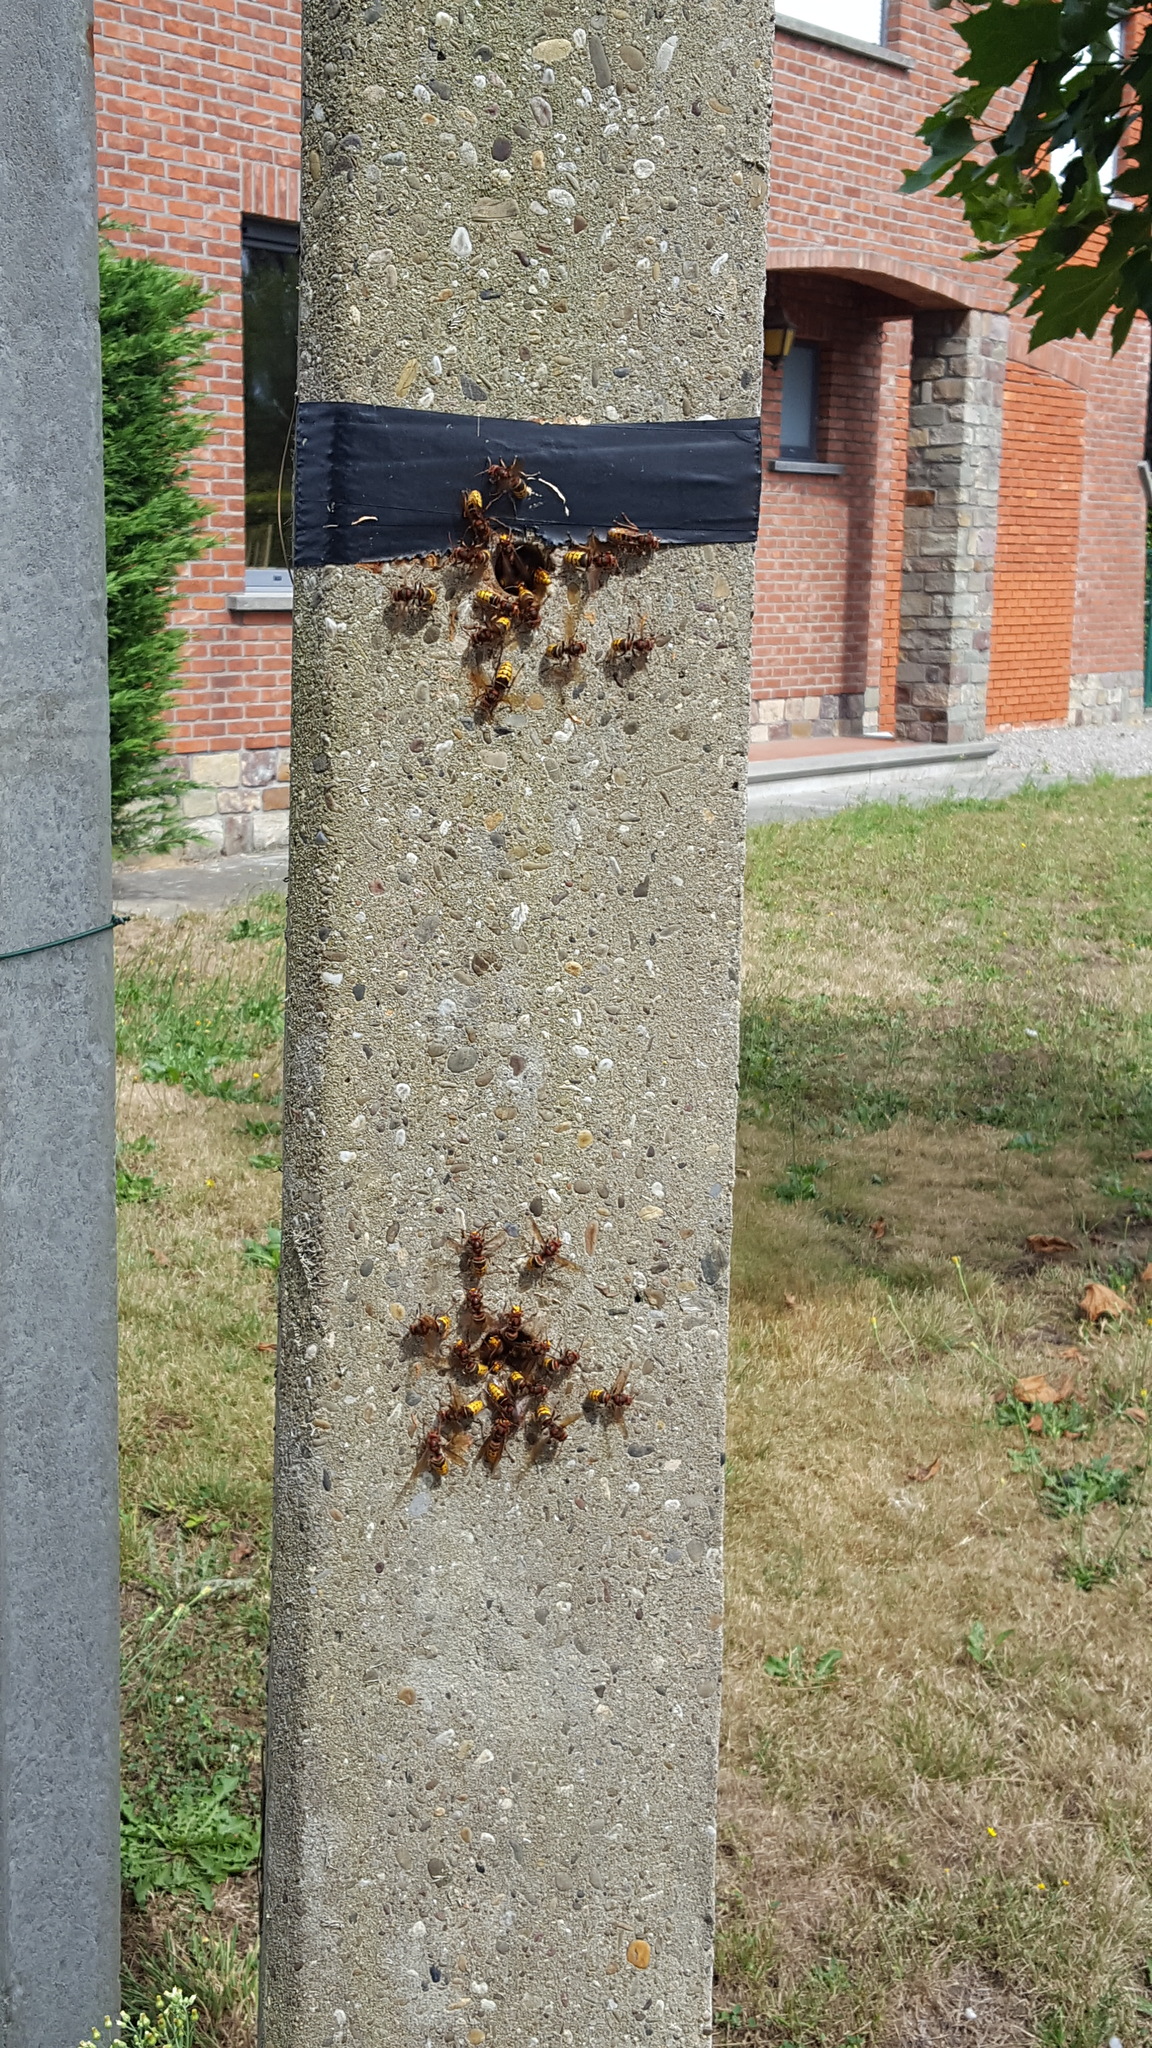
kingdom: Animalia
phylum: Arthropoda
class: Insecta
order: Hymenoptera
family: Vespidae
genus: Vespa
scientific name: Vespa crabro
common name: Hornet
